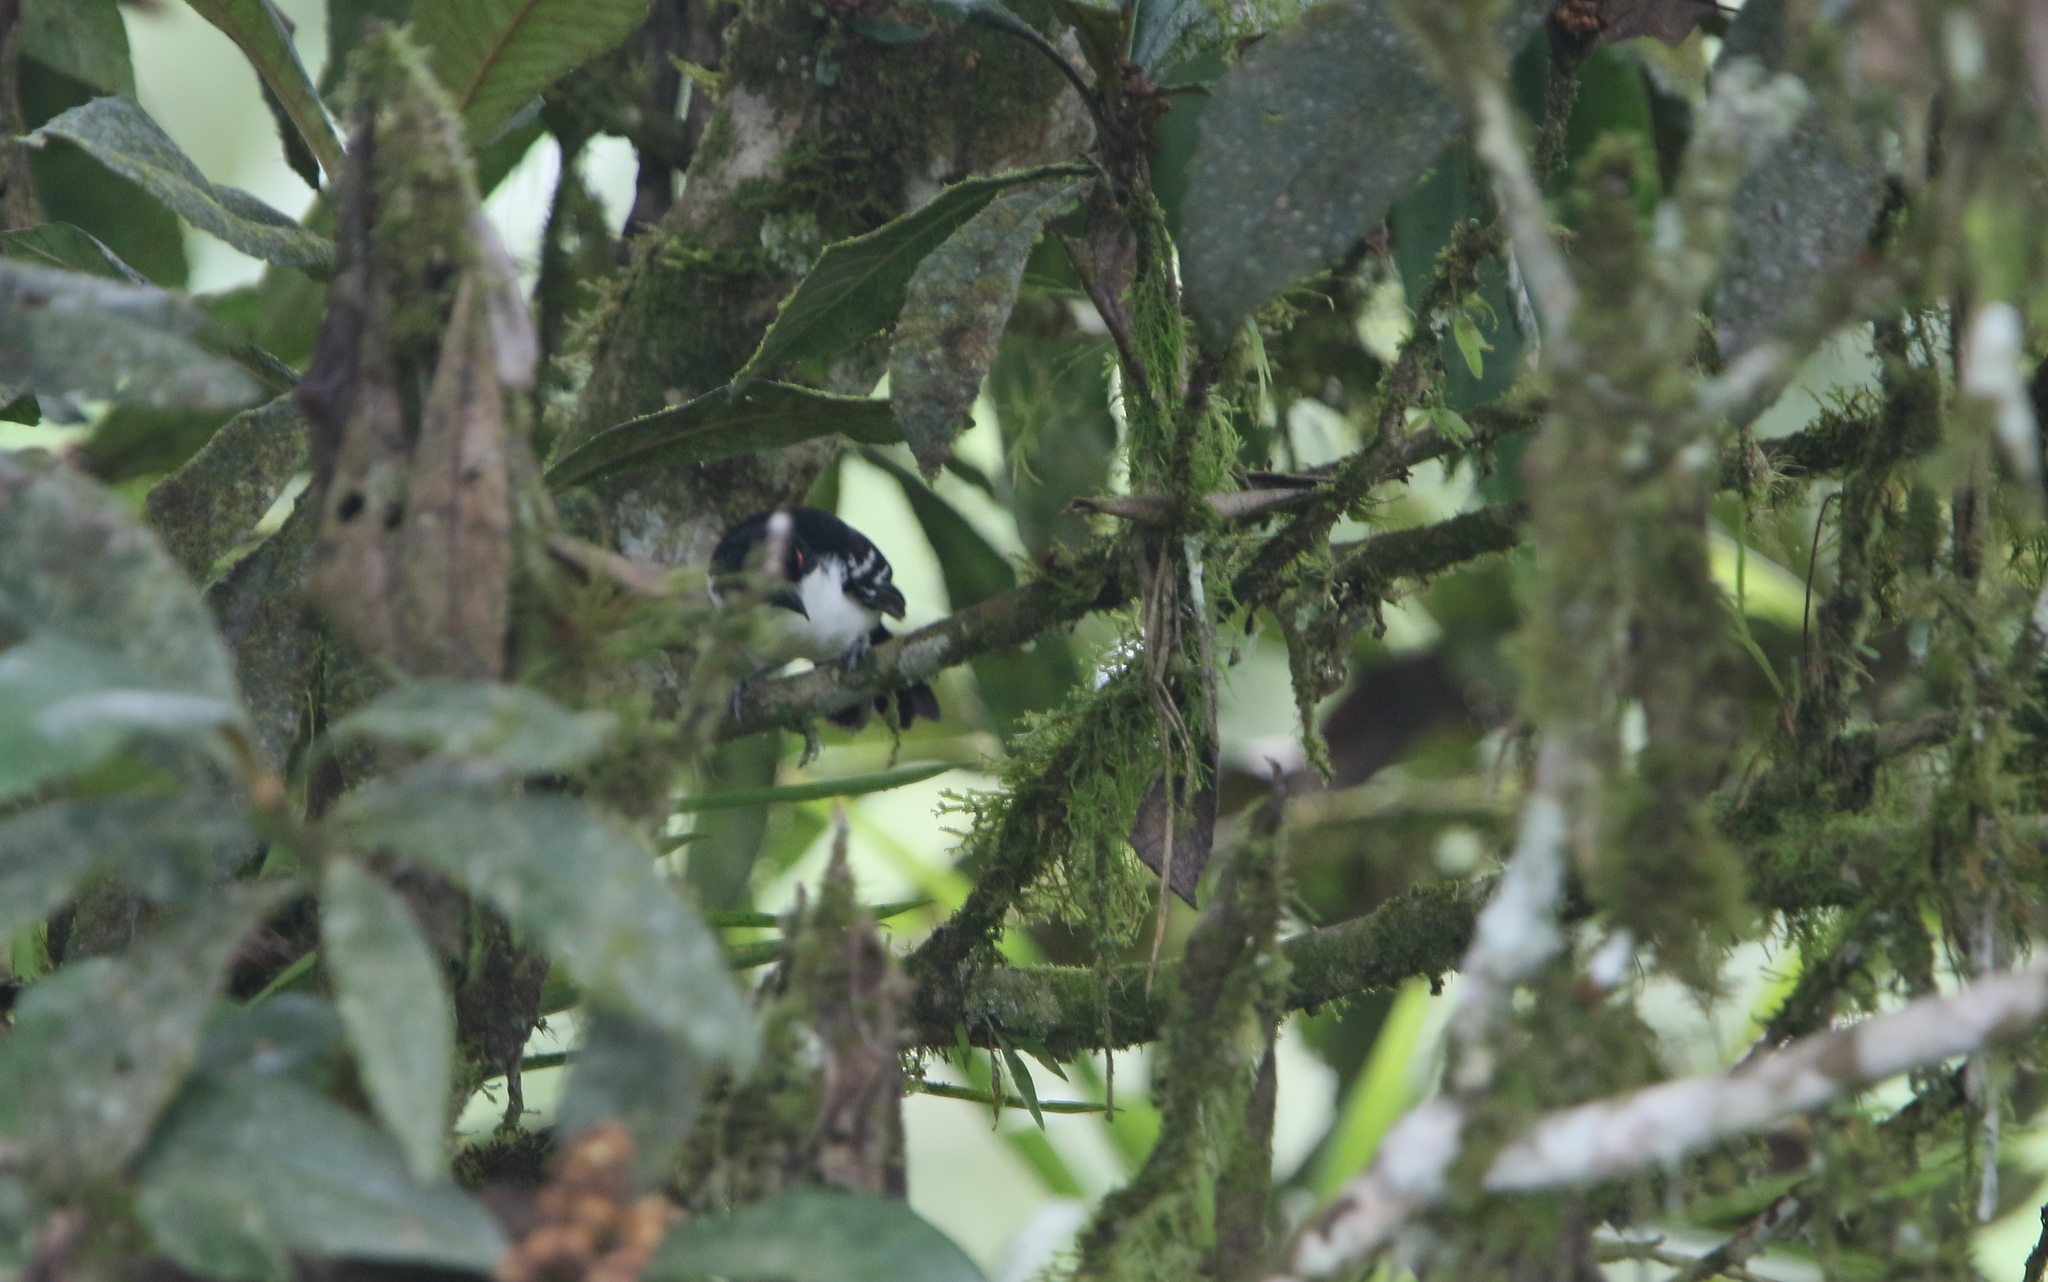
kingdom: Animalia
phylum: Chordata
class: Aves
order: Passeriformes
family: Thamnophilidae
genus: Taraba
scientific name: Taraba major
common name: Great antshrike
